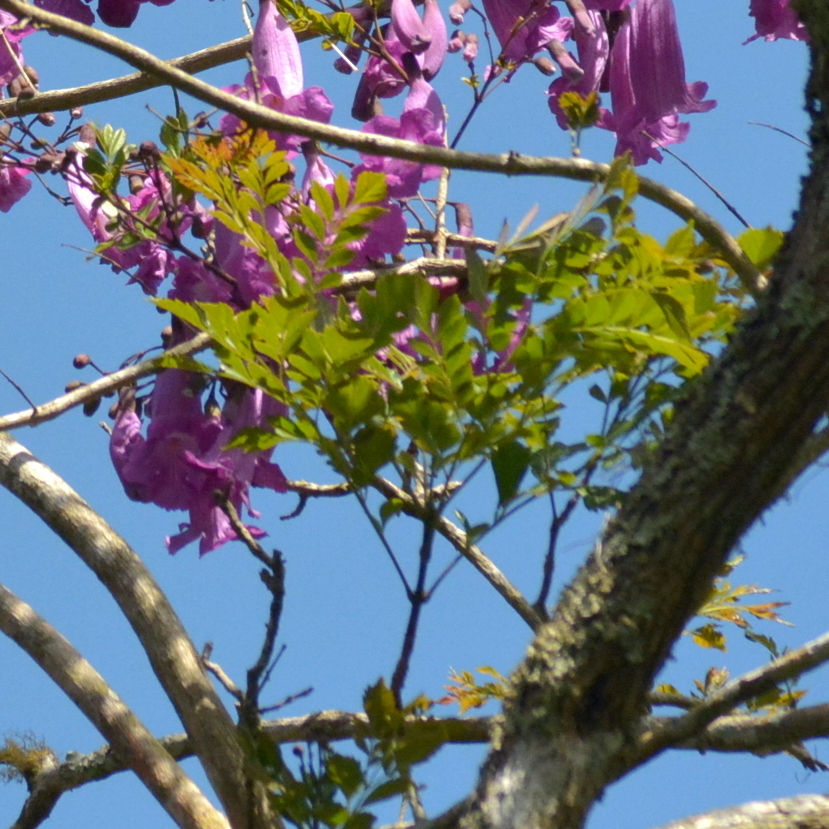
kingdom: Plantae
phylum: Tracheophyta
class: Magnoliopsida
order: Lamiales
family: Bignoniaceae
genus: Jacaranda
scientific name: Jacaranda puberula
